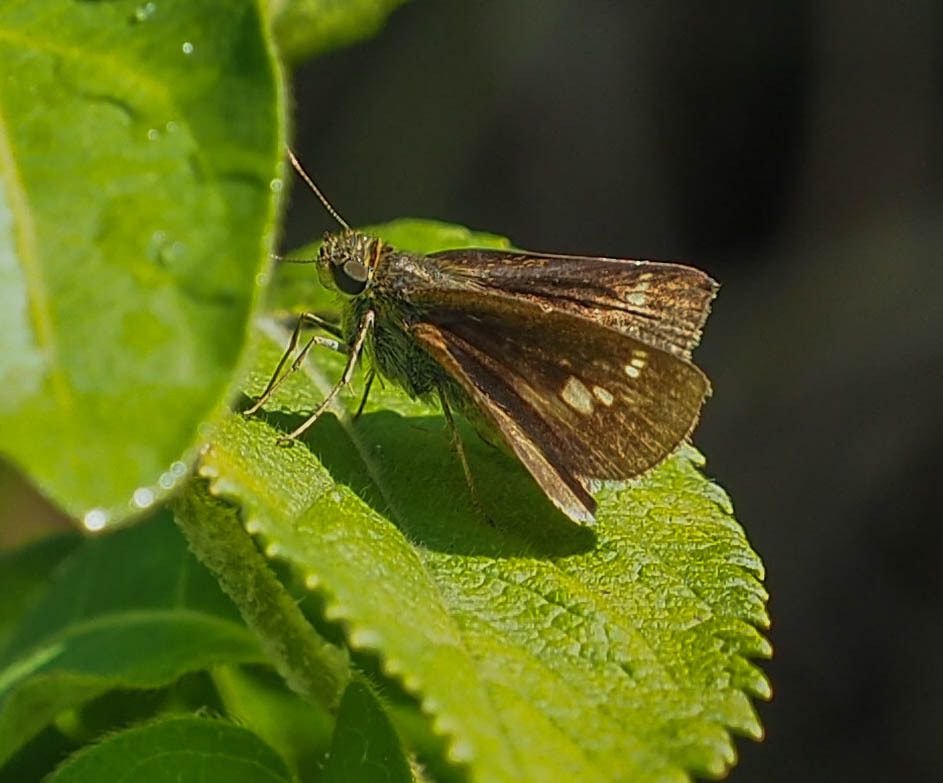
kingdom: Animalia
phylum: Arthropoda
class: Insecta
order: Lepidoptera
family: Hesperiidae
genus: Vernia
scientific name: Vernia verna
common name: Little glassywing
